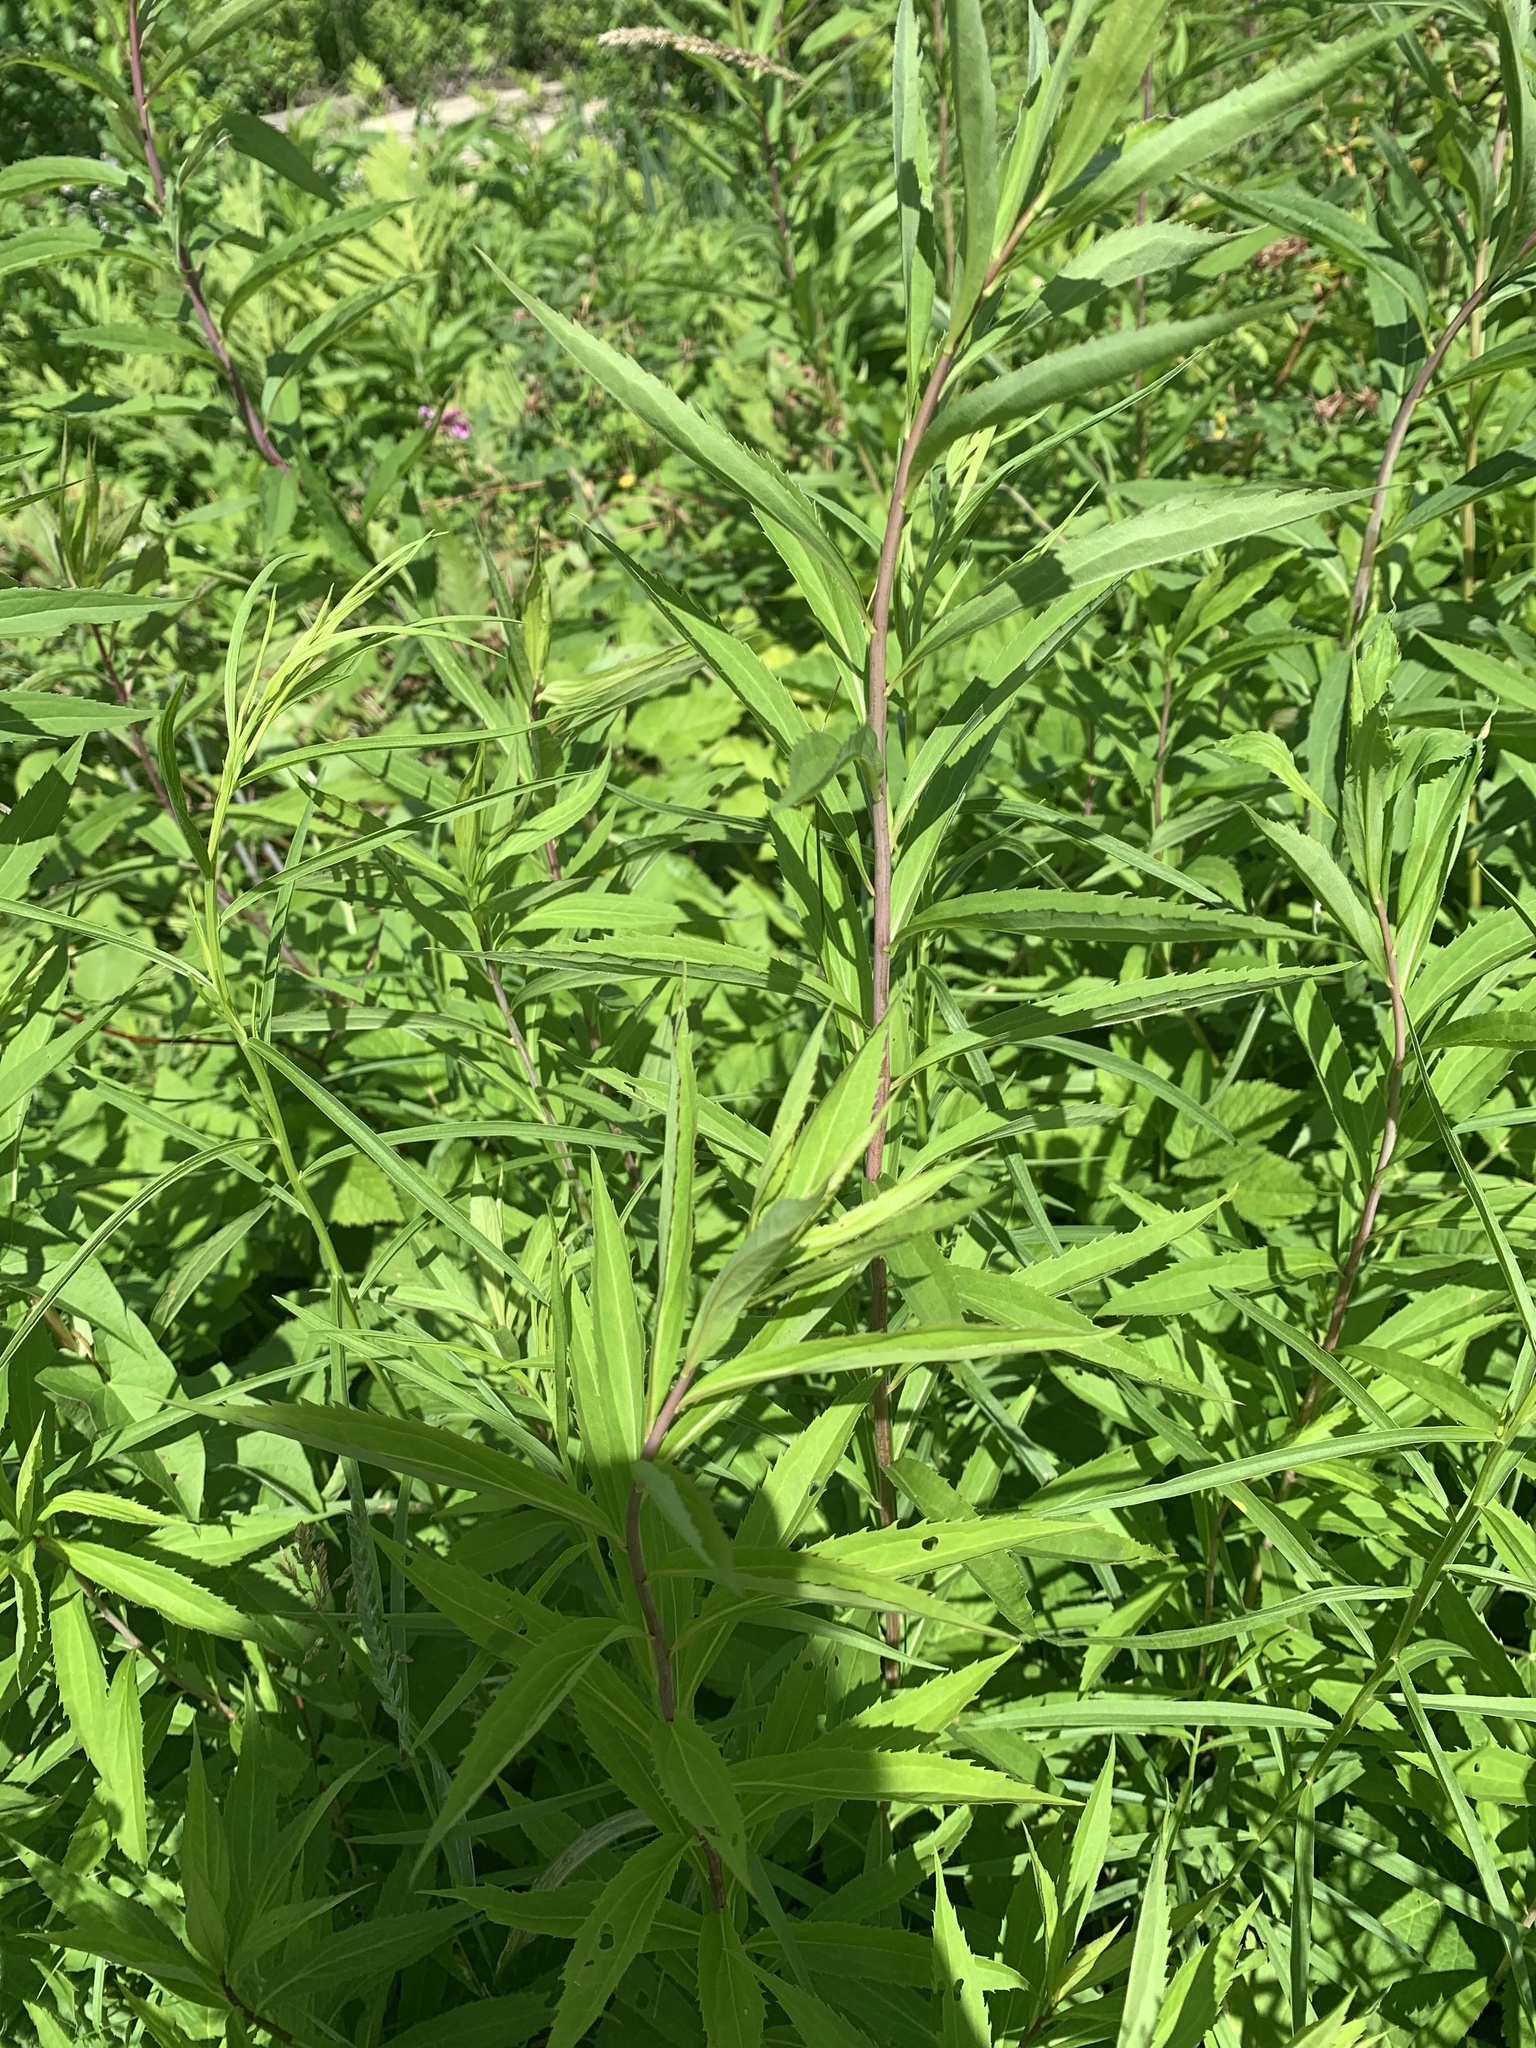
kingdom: Plantae
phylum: Tracheophyta
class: Magnoliopsida
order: Asterales
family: Asteraceae
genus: Solidago
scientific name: Solidago gigantea
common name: Giant goldenrod
